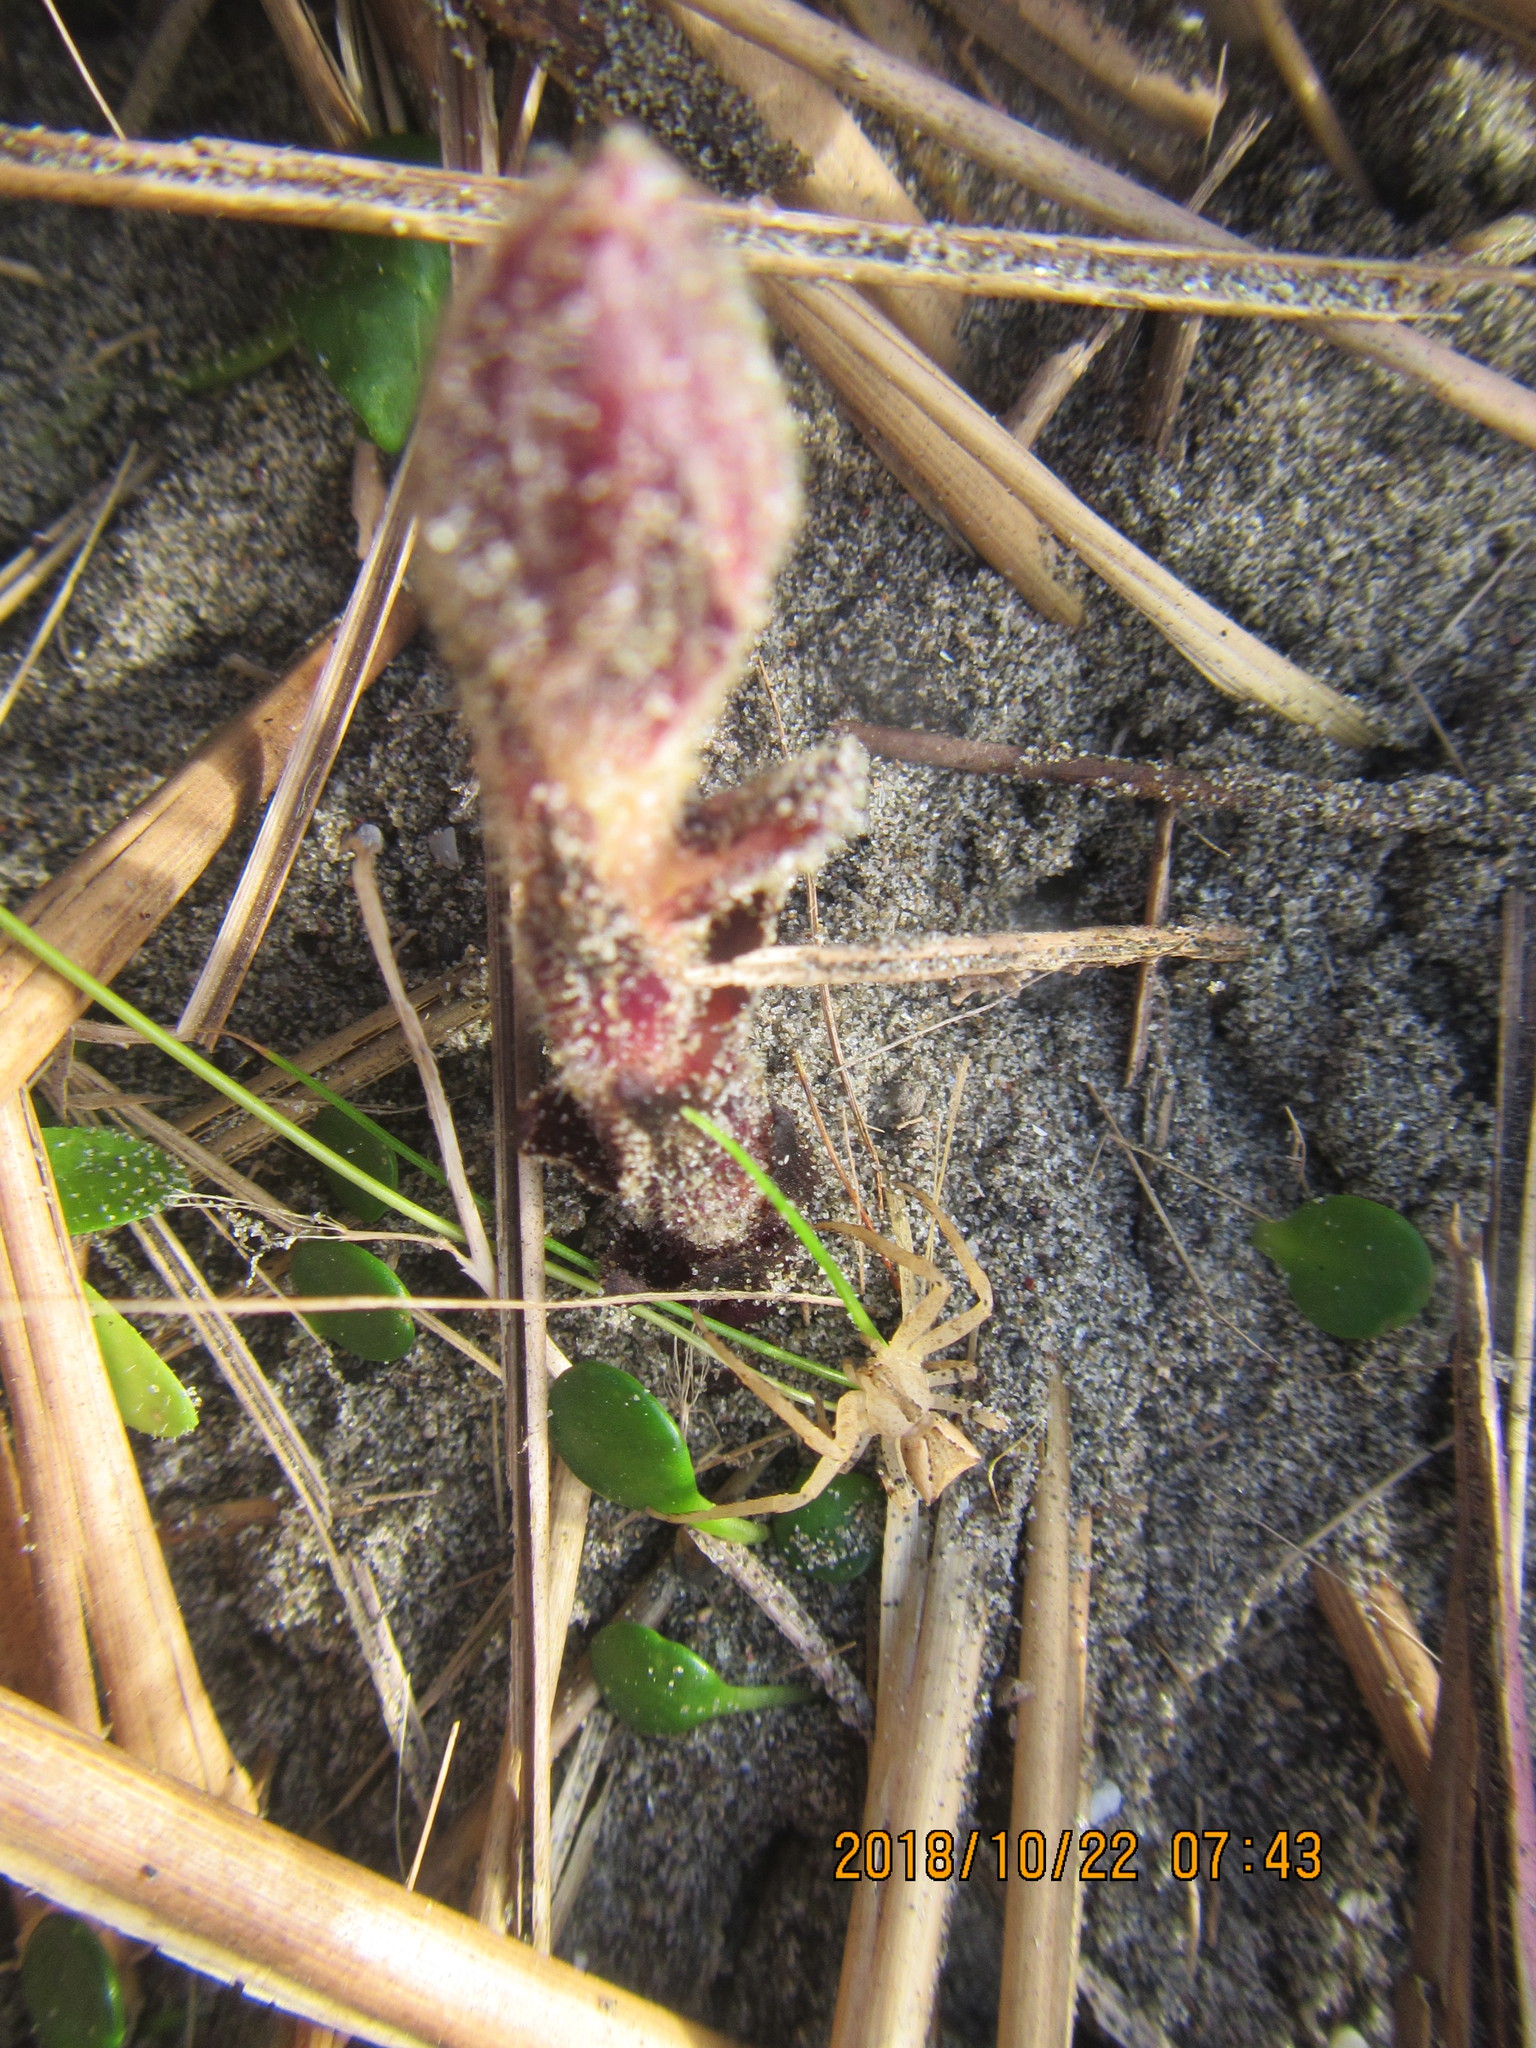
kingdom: Animalia
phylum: Arthropoda
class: Arachnida
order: Araneae
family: Thomisidae
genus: Sidymella
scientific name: Sidymella trapezia
